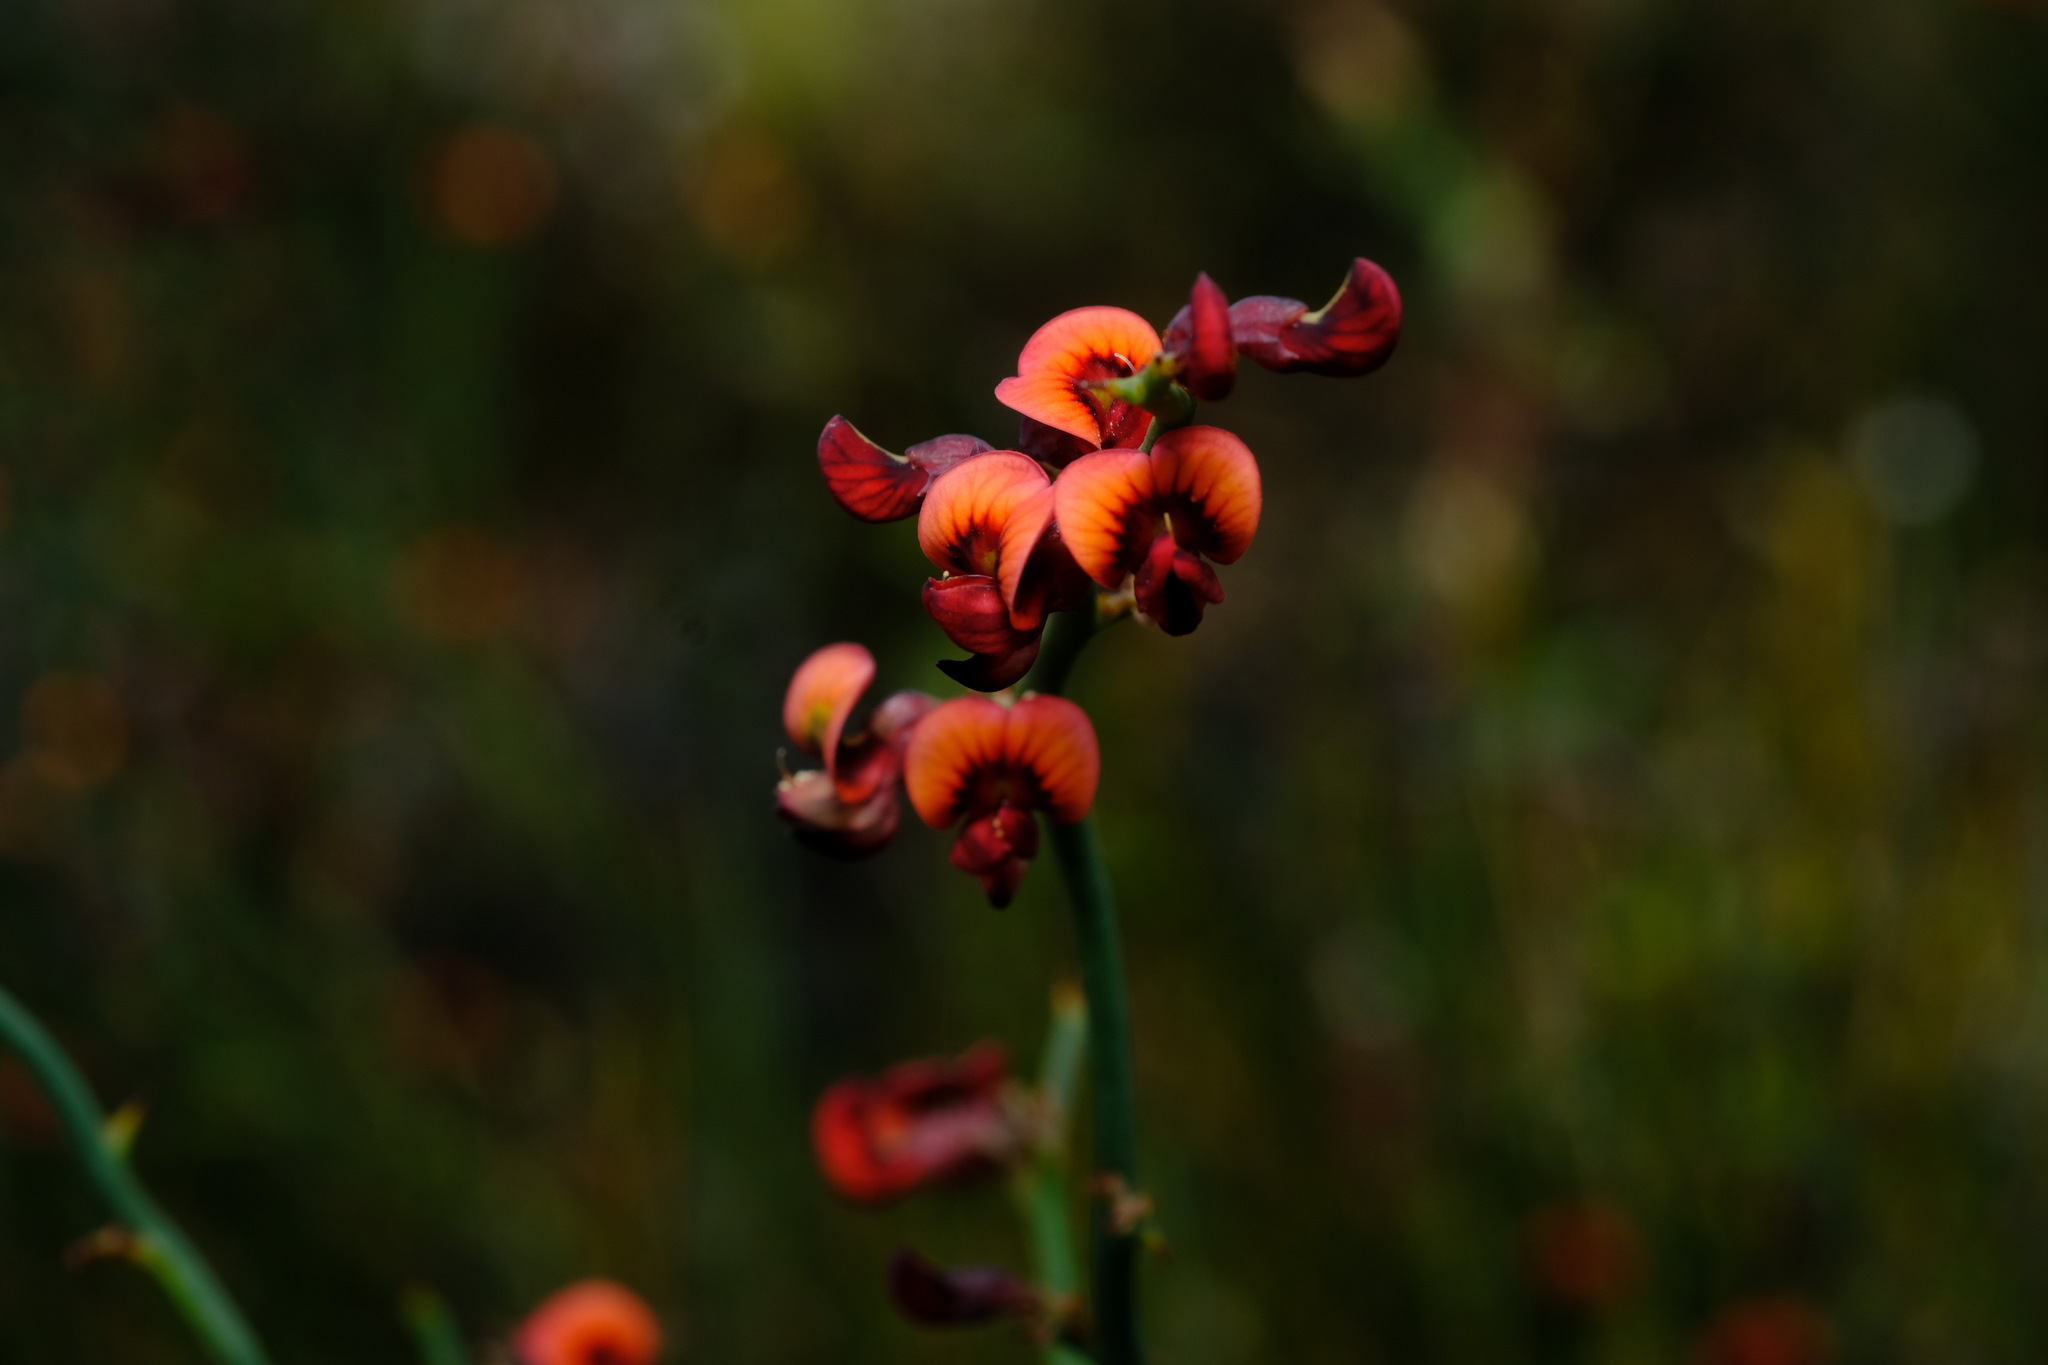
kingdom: Plantae
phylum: Tracheophyta
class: Magnoliopsida
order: Fabales
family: Fabaceae
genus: Daviesia
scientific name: Daviesia brevifolia
